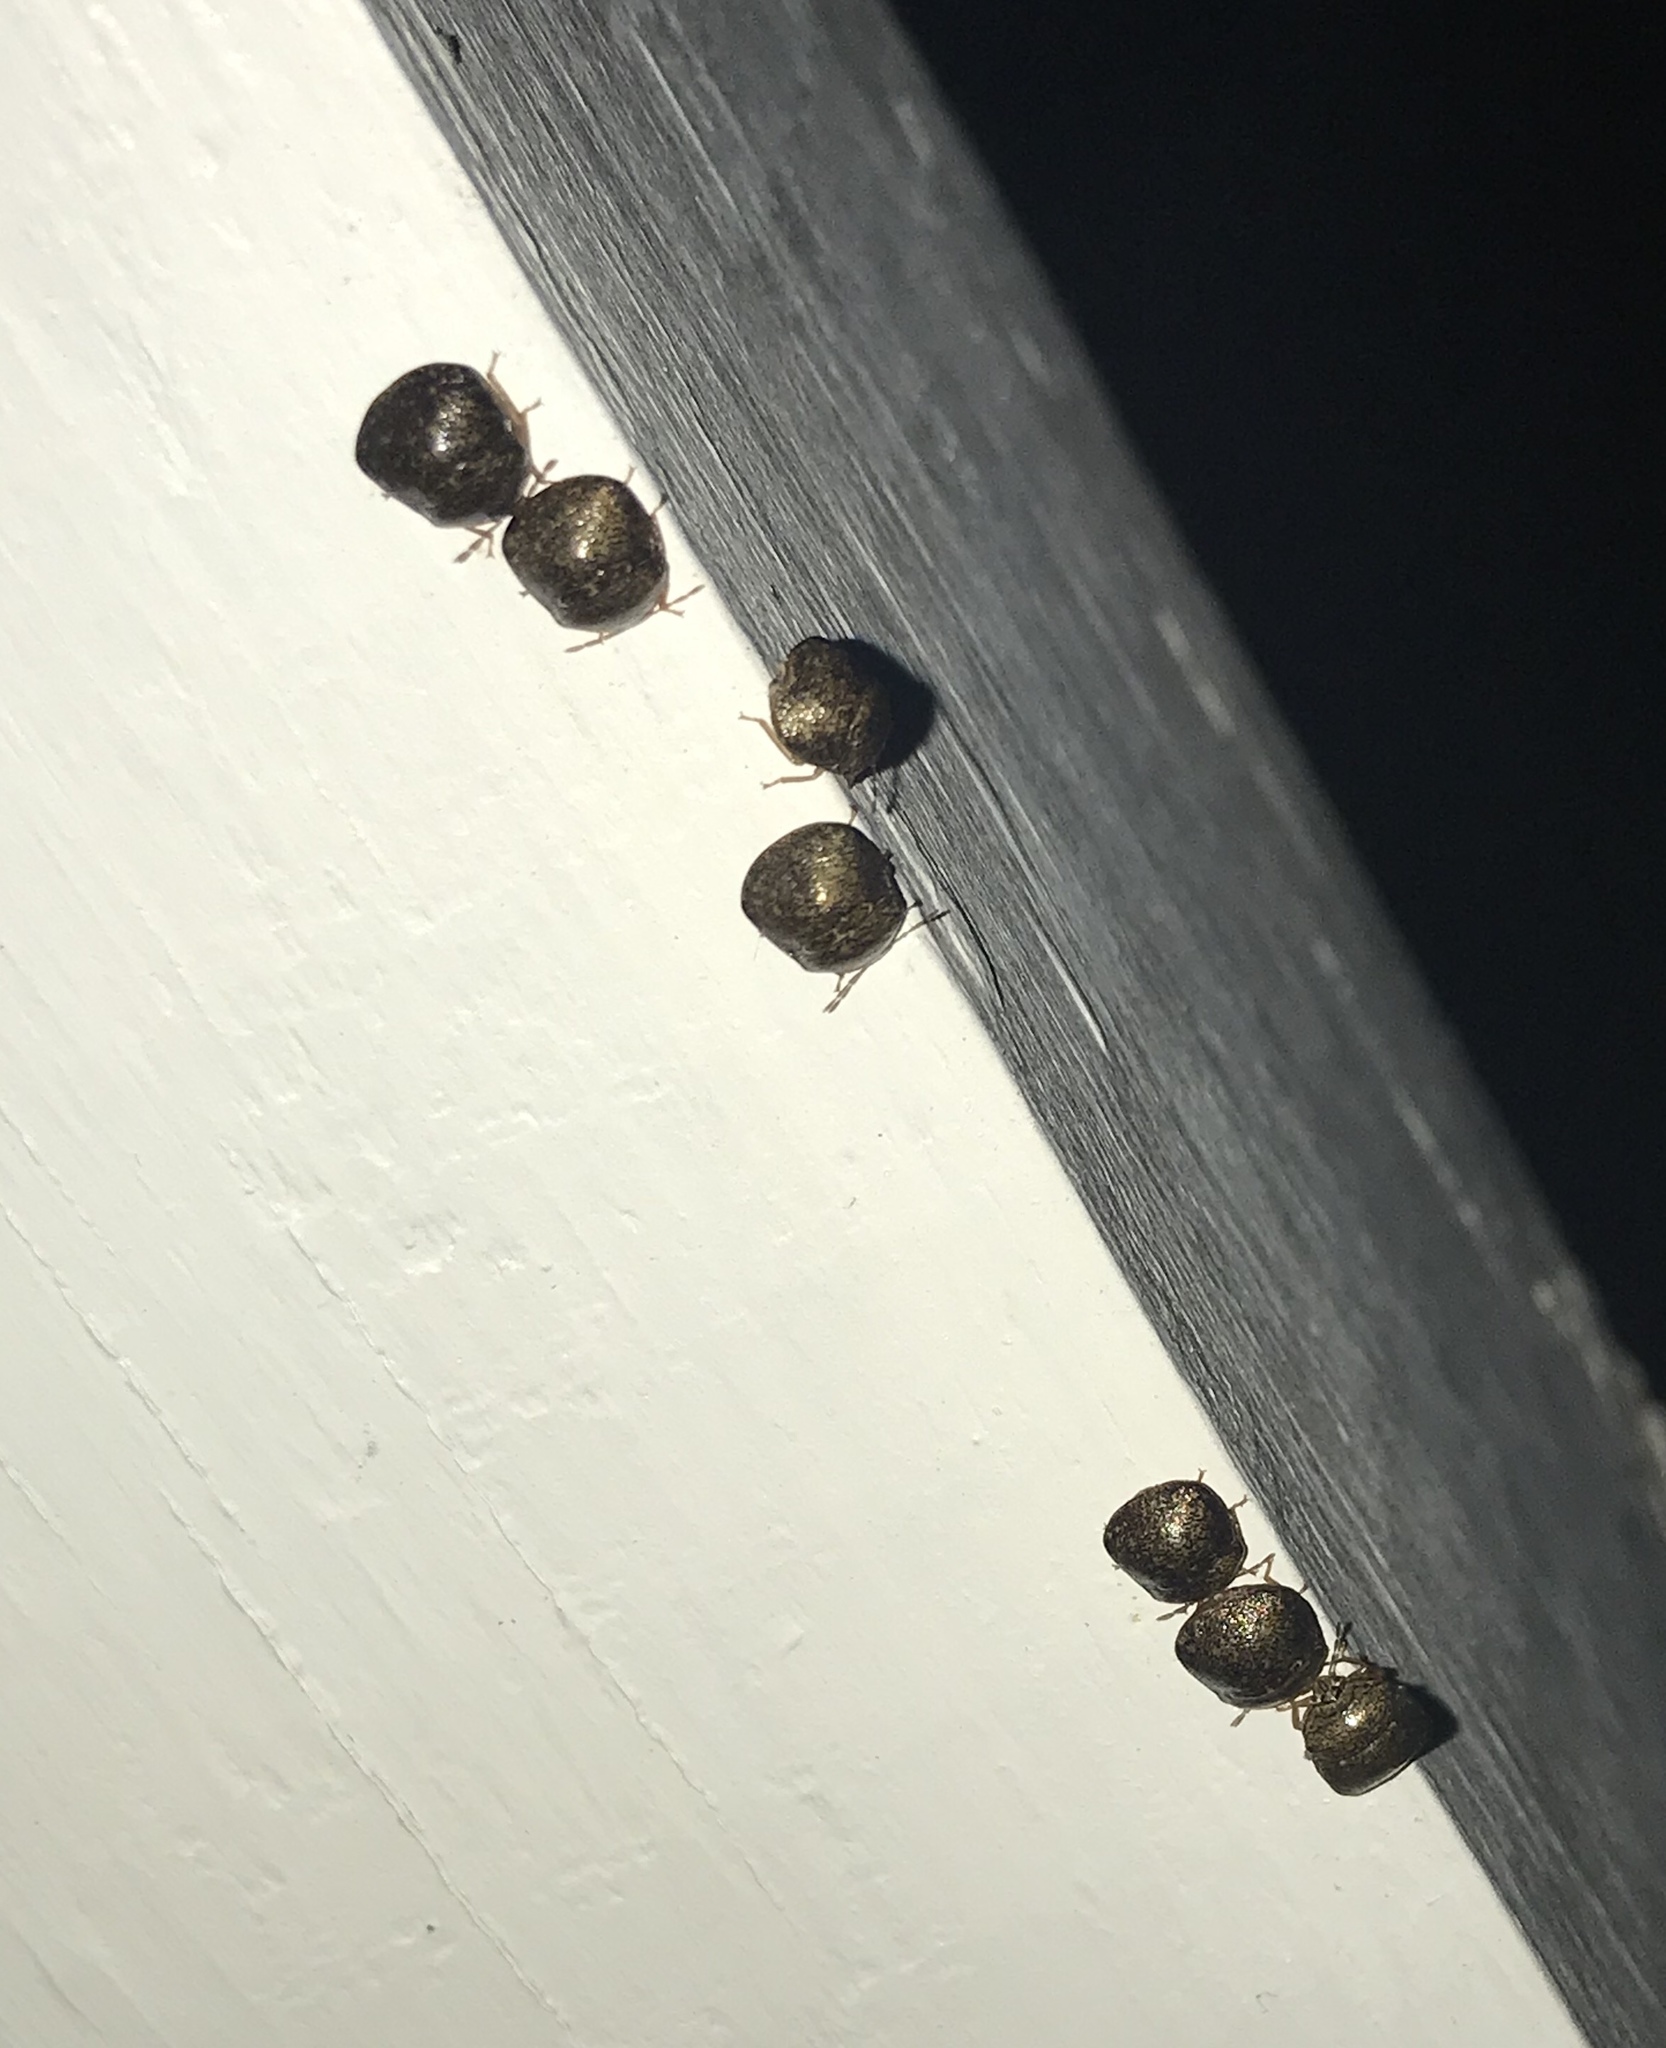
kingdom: Animalia
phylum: Arthropoda
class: Insecta
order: Hemiptera
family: Plataspidae
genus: Megacopta
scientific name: Megacopta cribraria
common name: Bean plataspid
